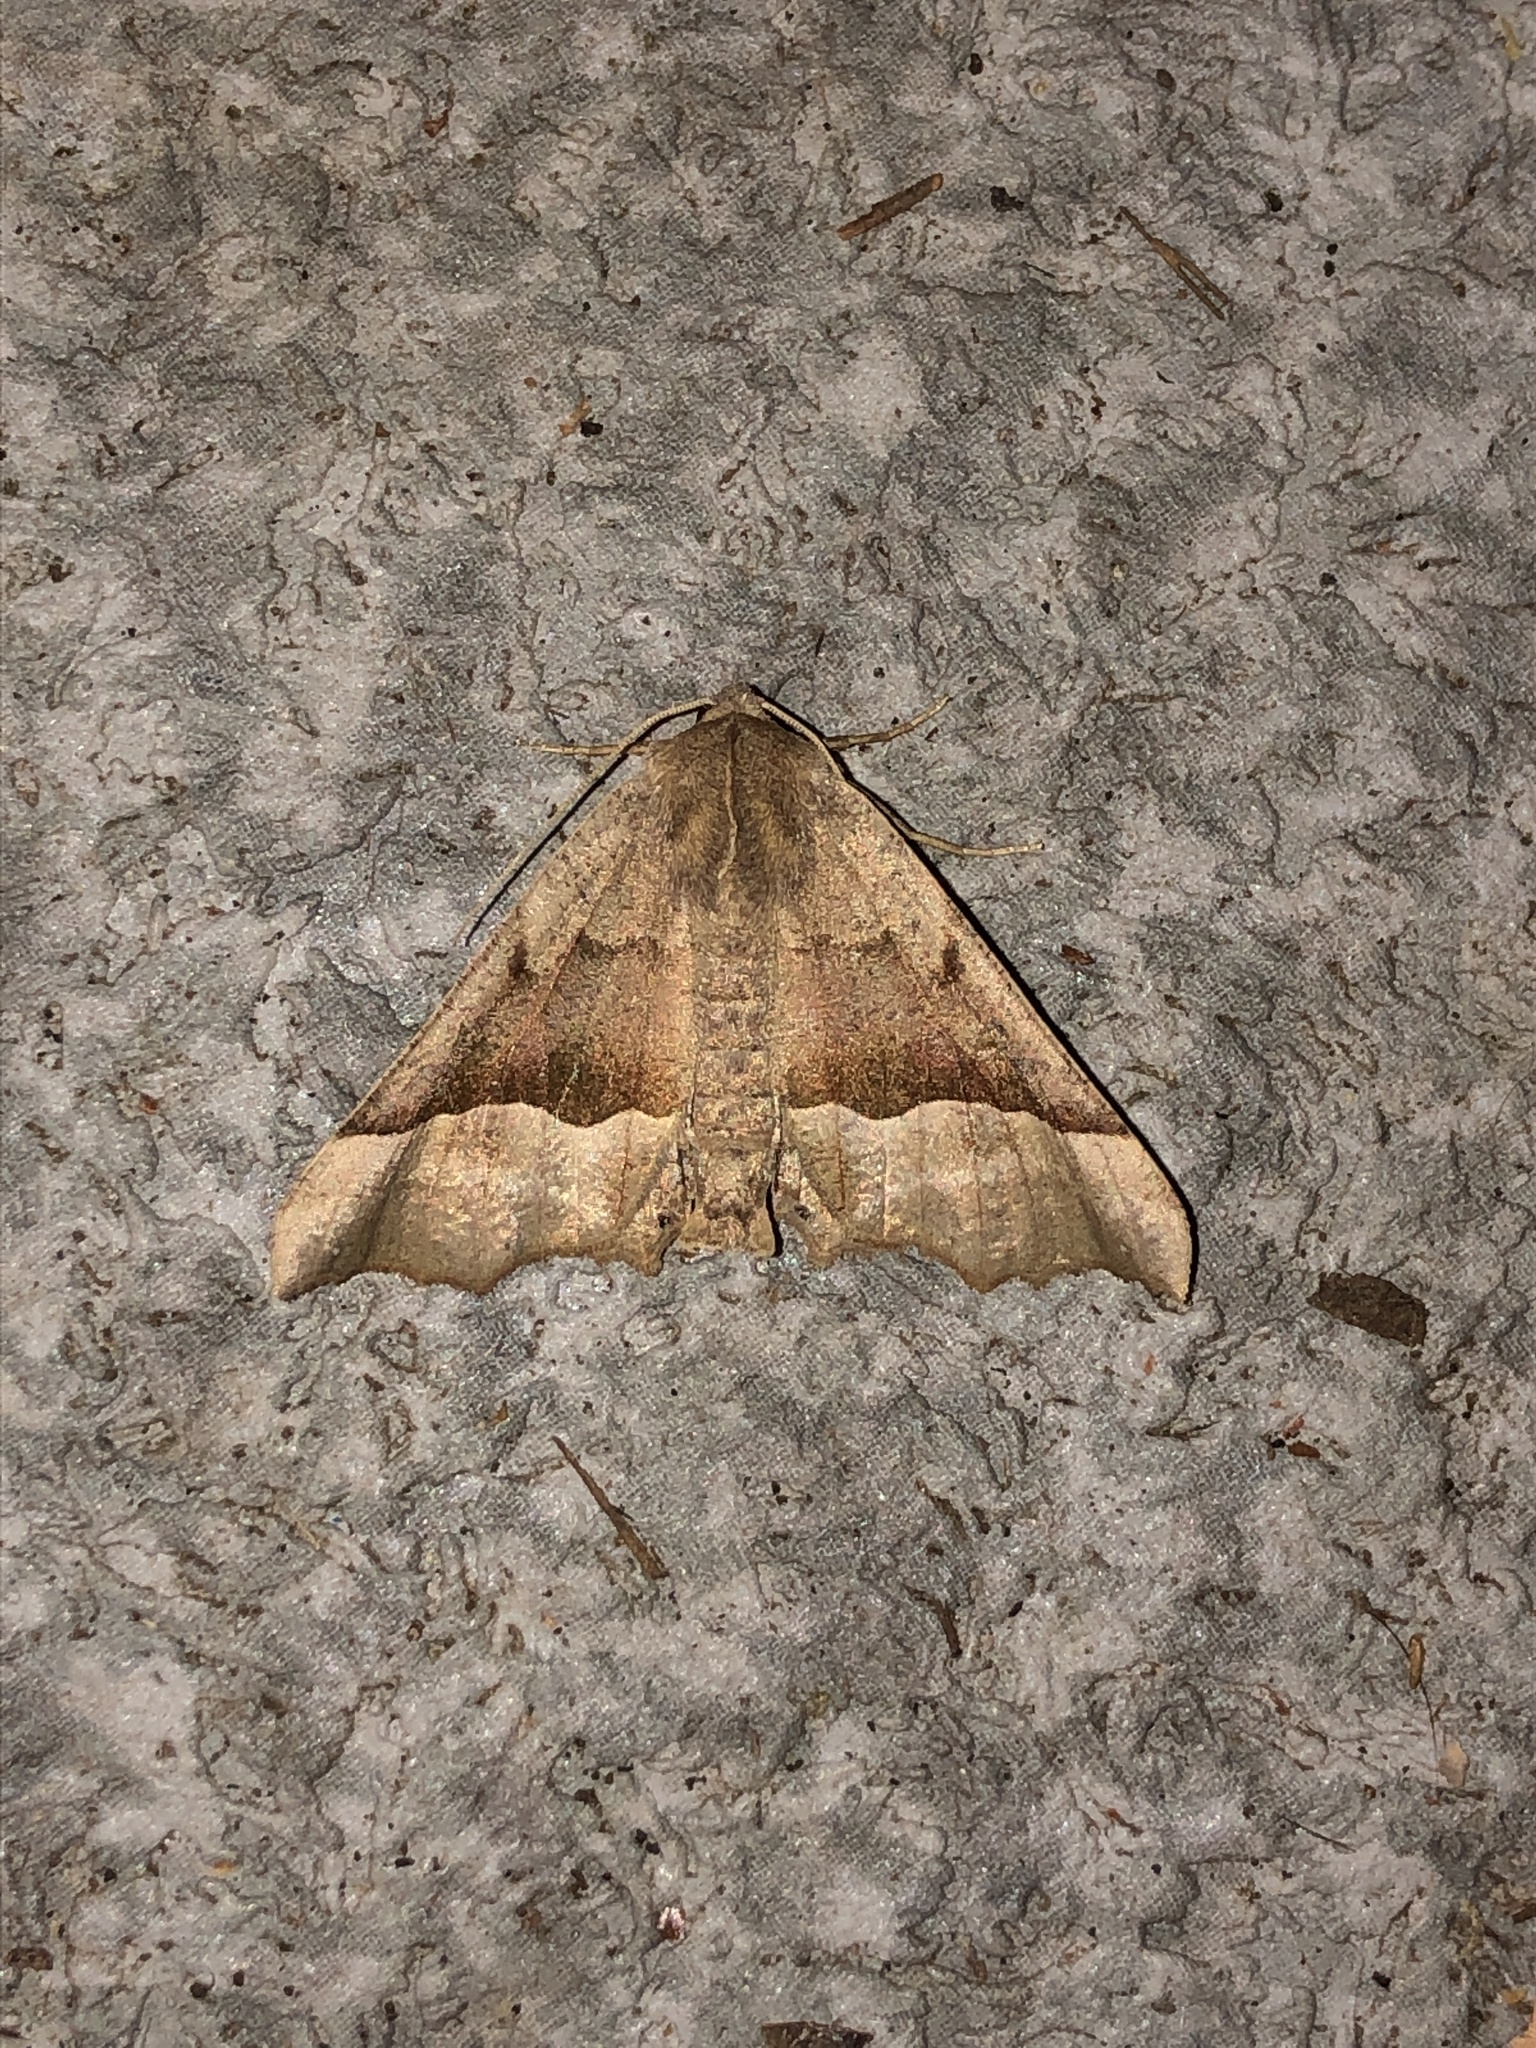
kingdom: Animalia
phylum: Arthropoda
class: Insecta
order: Lepidoptera
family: Geometridae
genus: Pero
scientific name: Pero morrisonaria
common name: Morrison's pero
